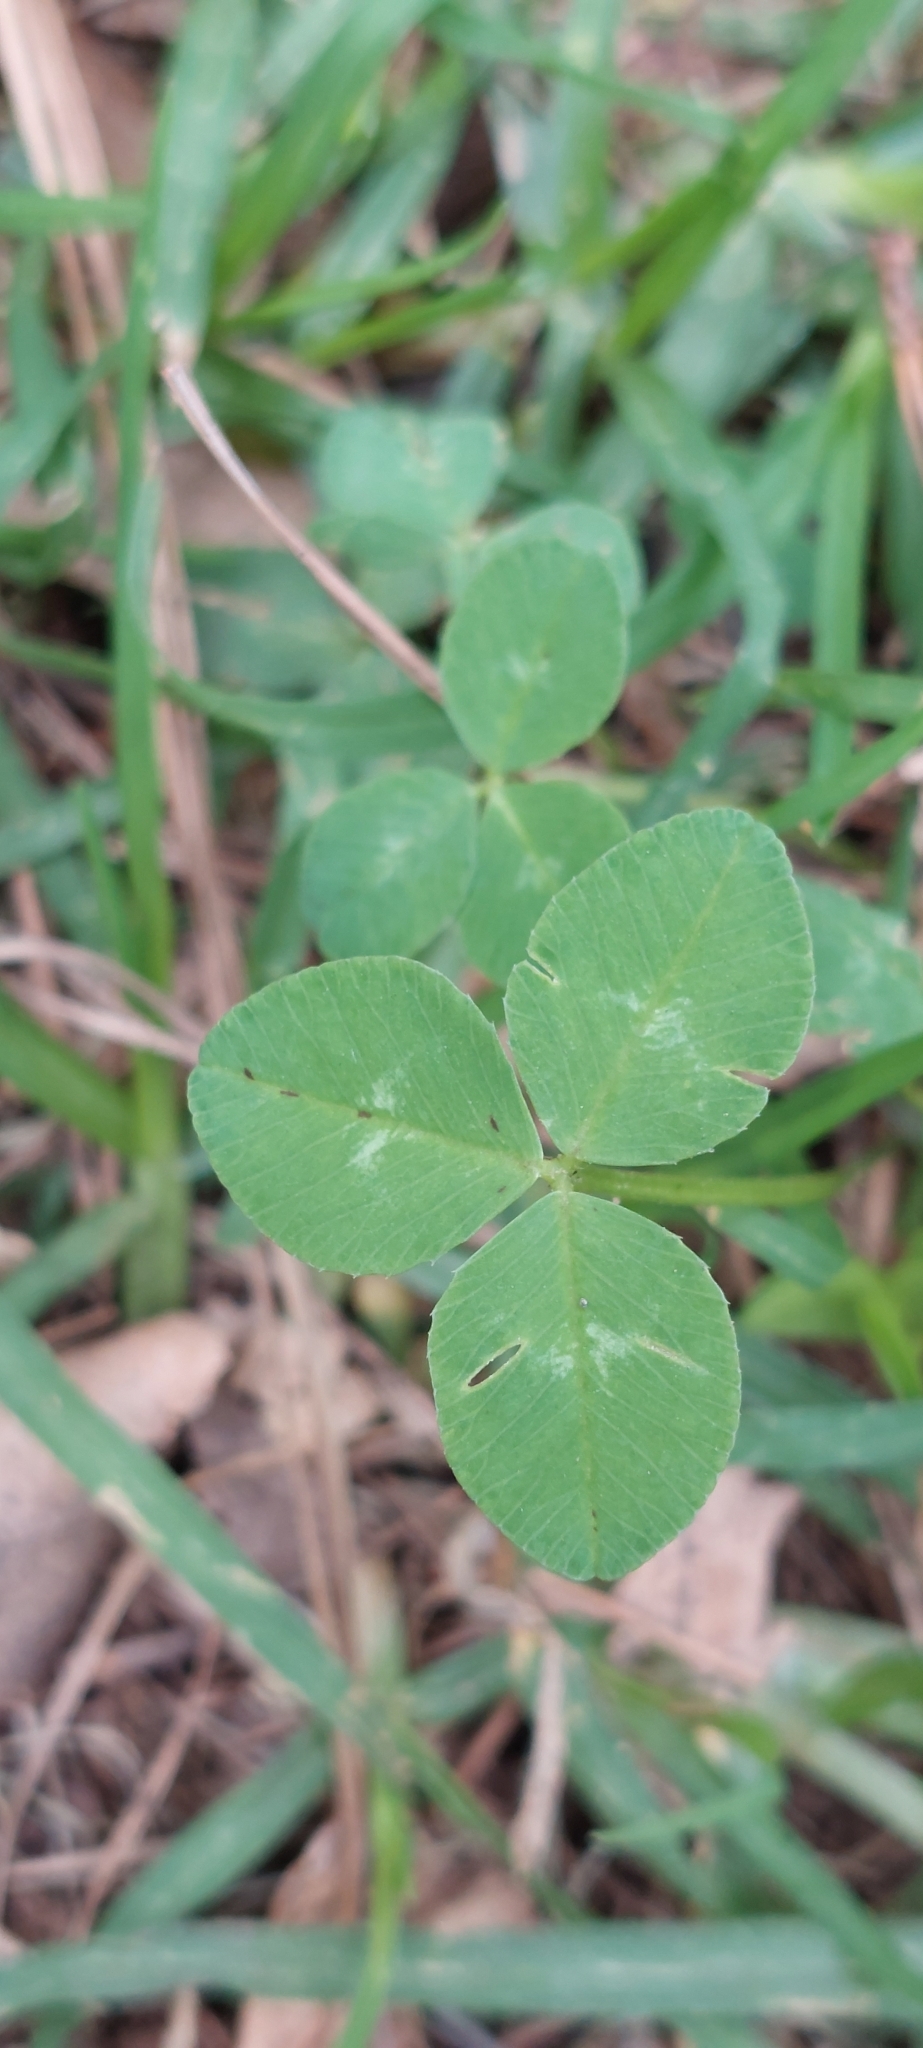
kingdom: Plantae
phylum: Tracheophyta
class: Magnoliopsida
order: Fabales
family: Fabaceae
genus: Trifolium
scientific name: Trifolium repens
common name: White clover
